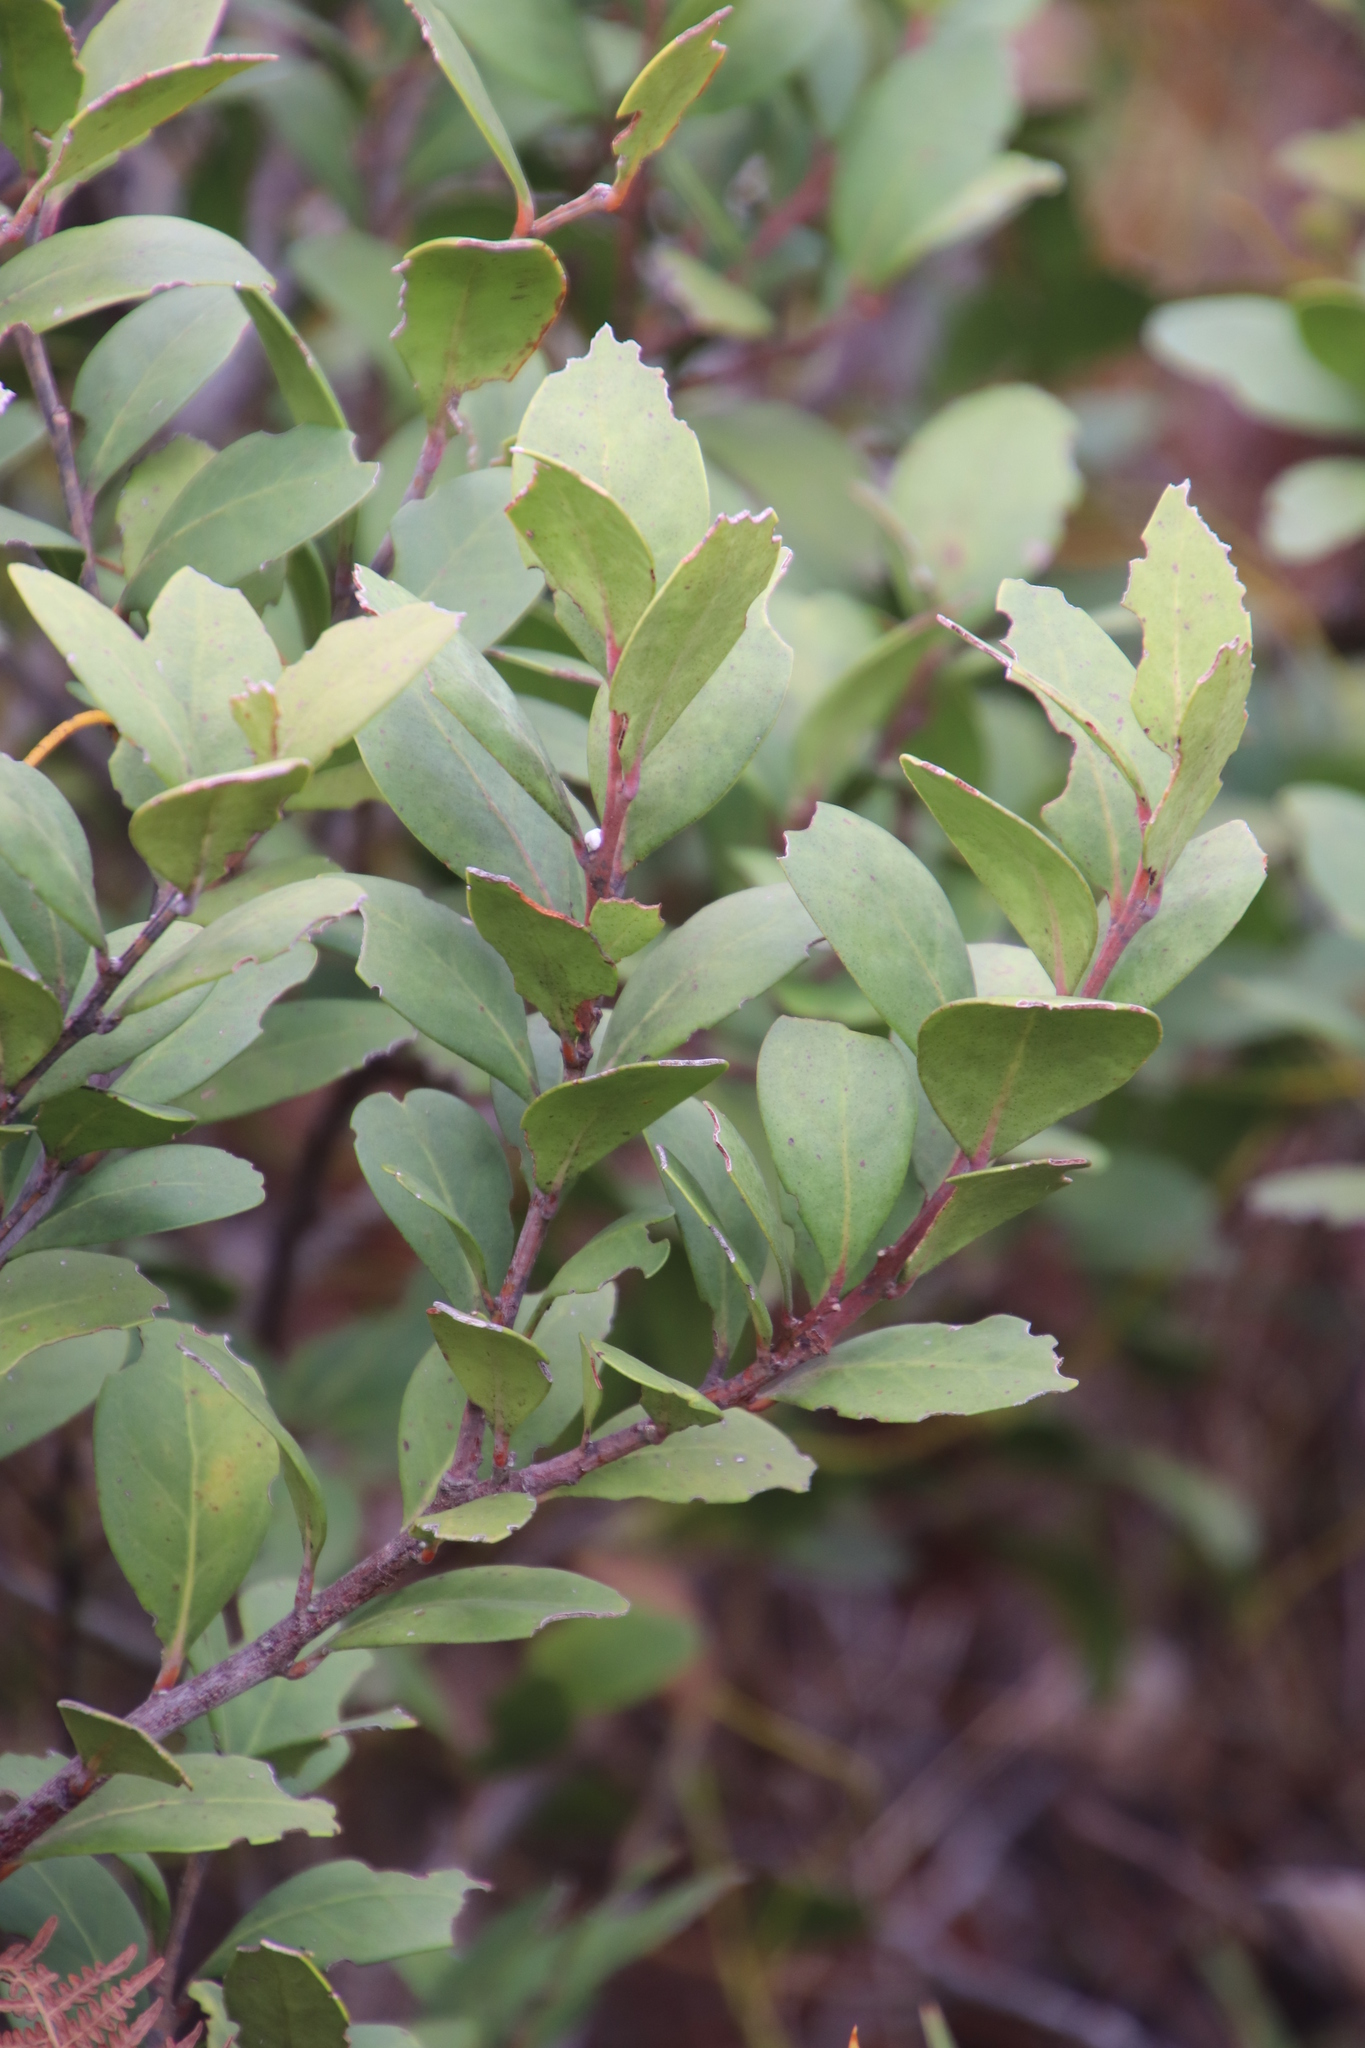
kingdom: Plantae
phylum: Tracheophyta
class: Magnoliopsida
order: Ericales
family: Ebenaceae
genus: Euclea
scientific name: Euclea racemosa
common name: Dune guarri
